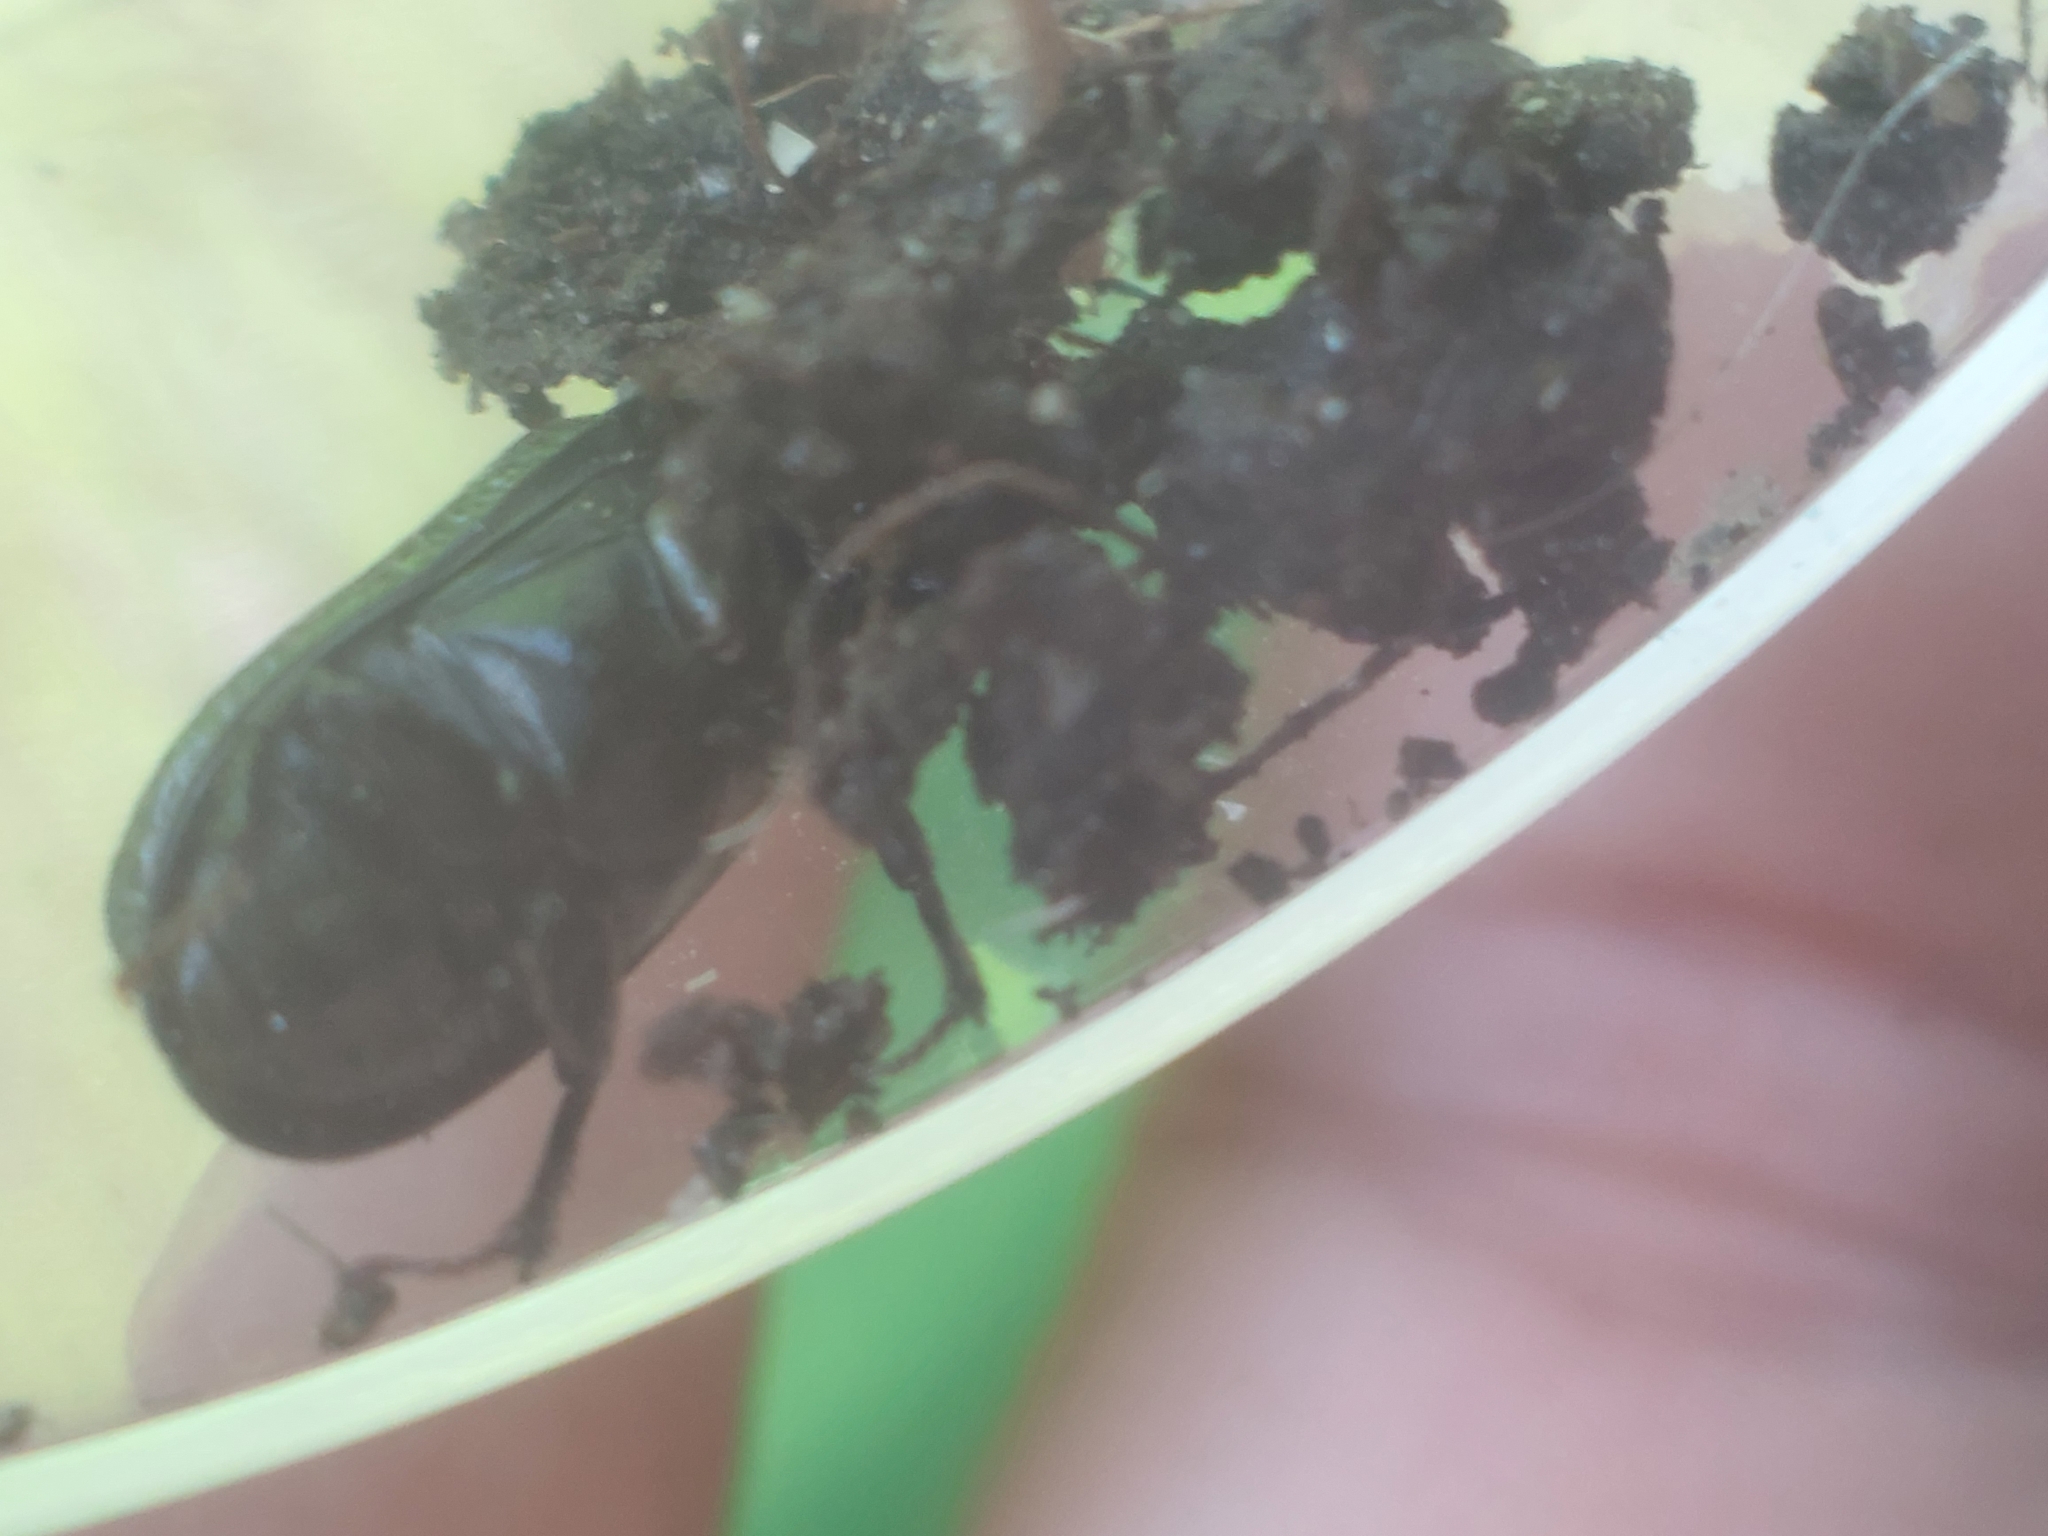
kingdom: Animalia
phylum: Arthropoda
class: Insecta
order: Coleoptera
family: Lucanidae
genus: Sinodendron
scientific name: Sinodendron cylindricum
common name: Rhinoceros beetle
